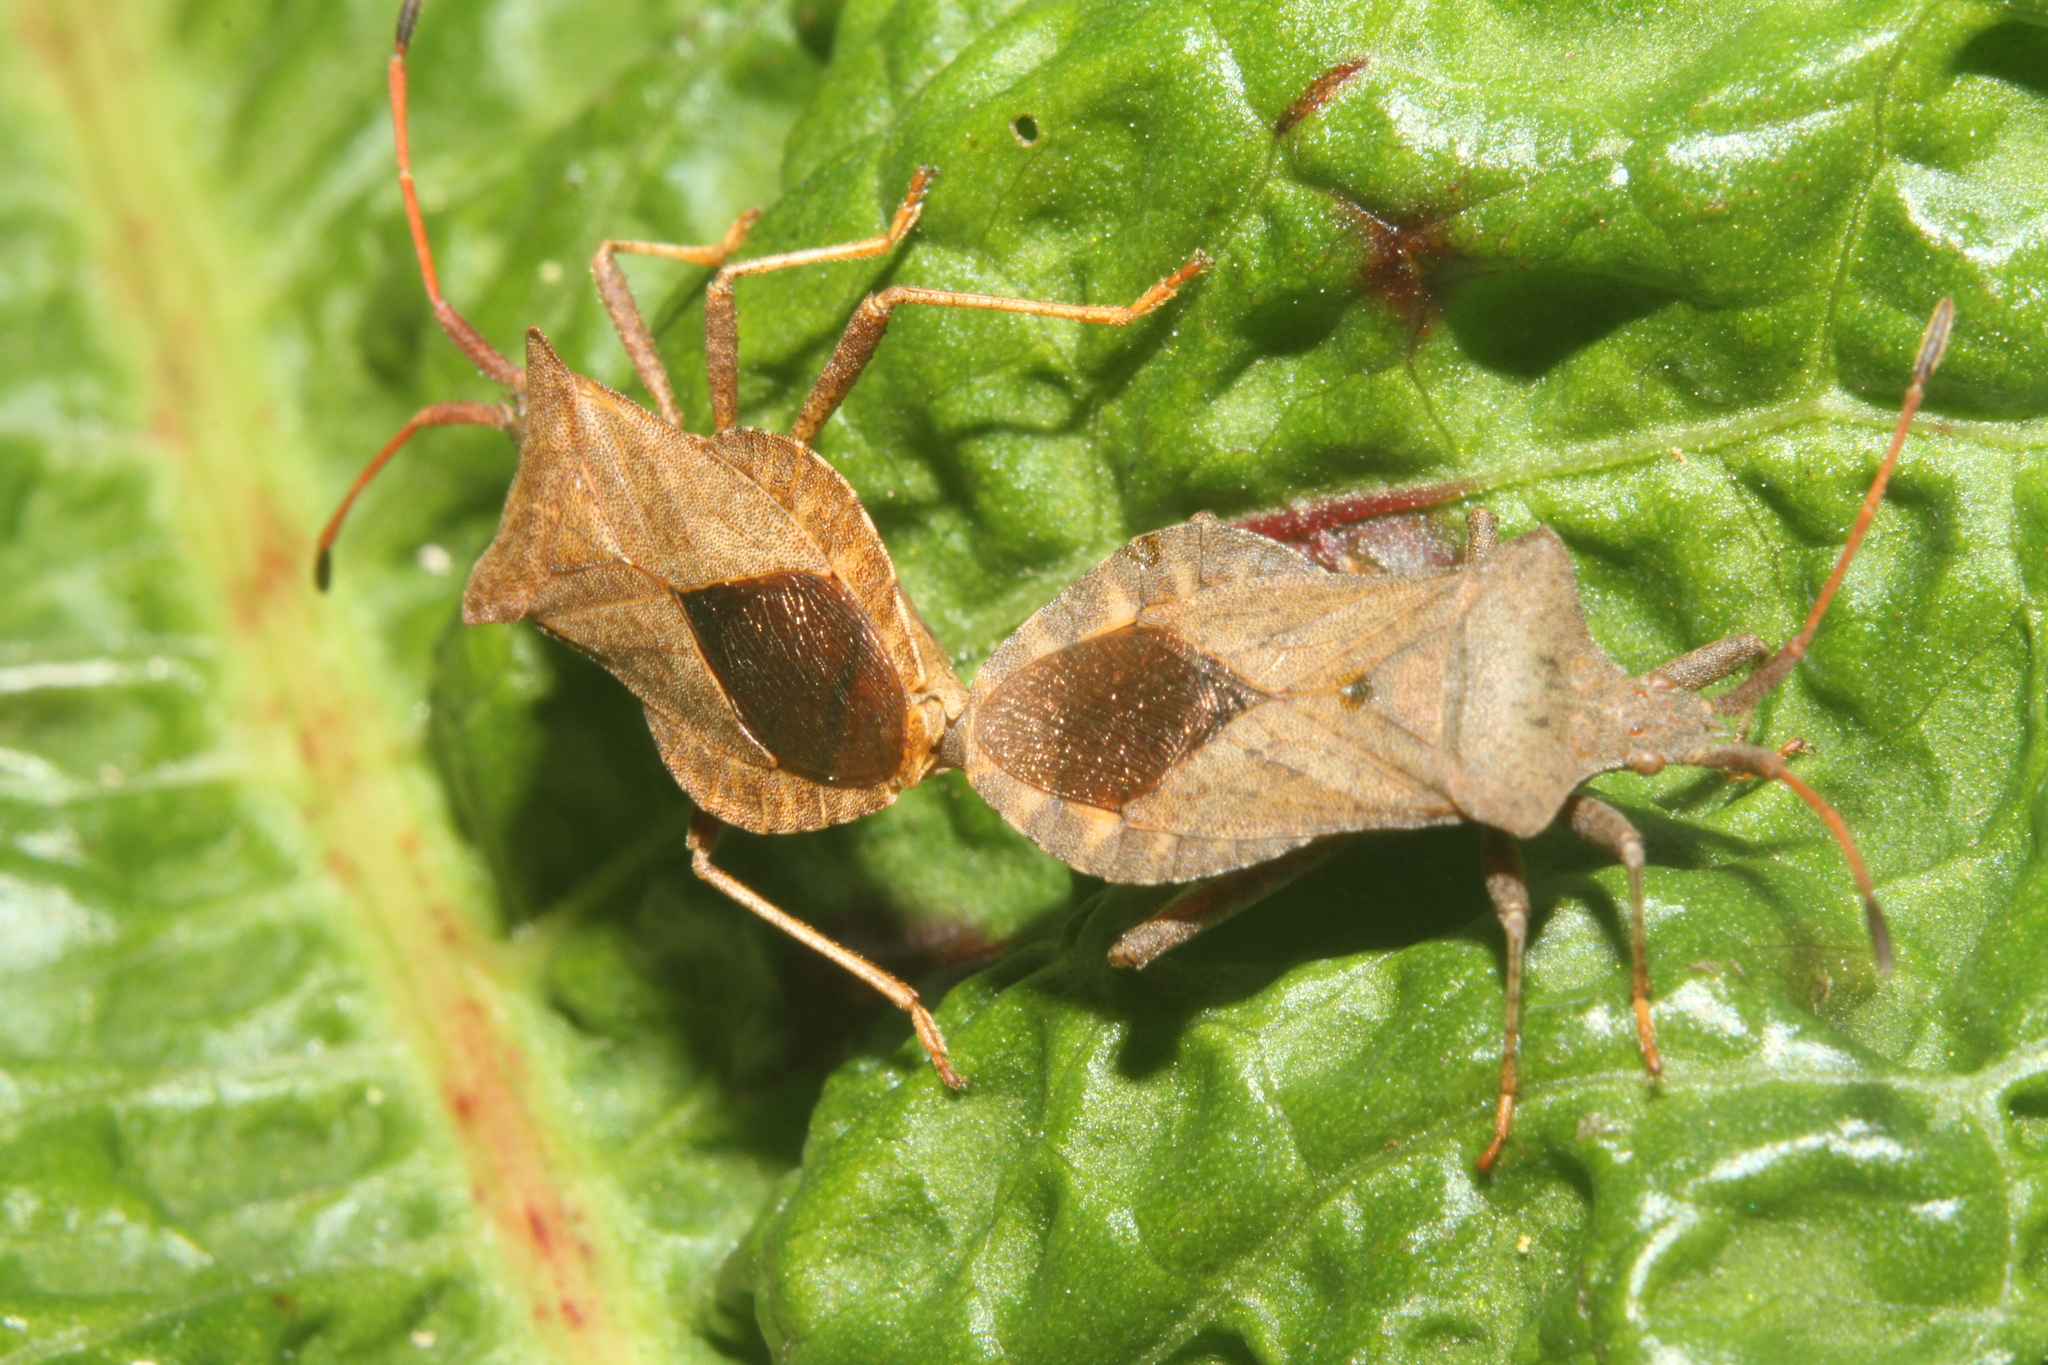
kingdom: Animalia
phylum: Arthropoda
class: Insecta
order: Hemiptera
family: Coreidae
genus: Coreus
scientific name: Coreus marginatus
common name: Dock bug
